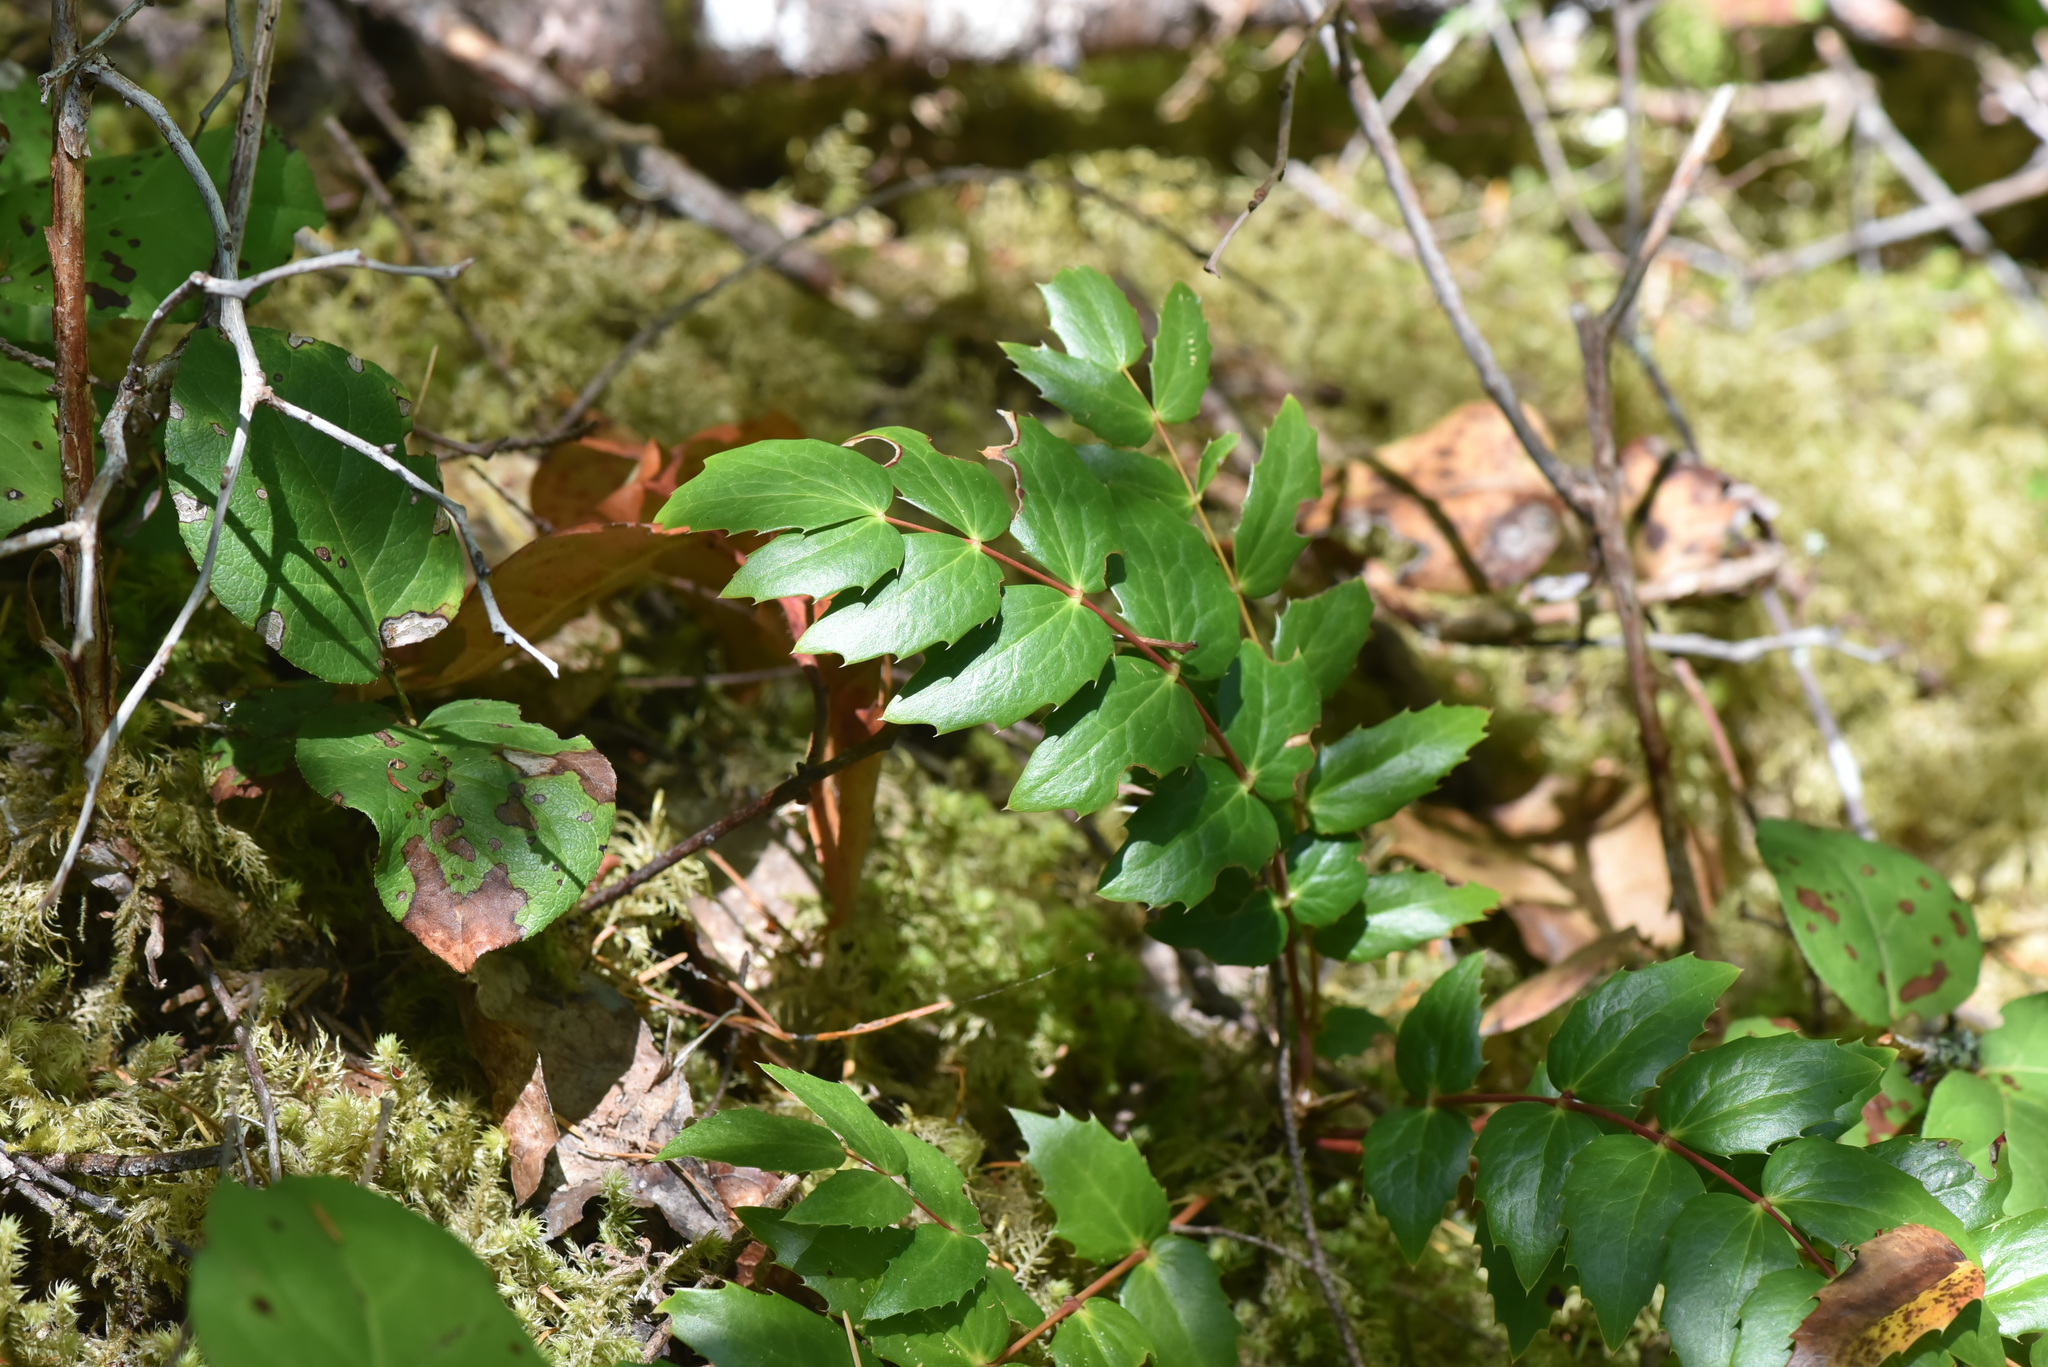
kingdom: Plantae
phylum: Tracheophyta
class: Magnoliopsida
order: Ranunculales
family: Berberidaceae
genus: Mahonia
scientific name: Mahonia nervosa
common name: Cascade oregon-grape
